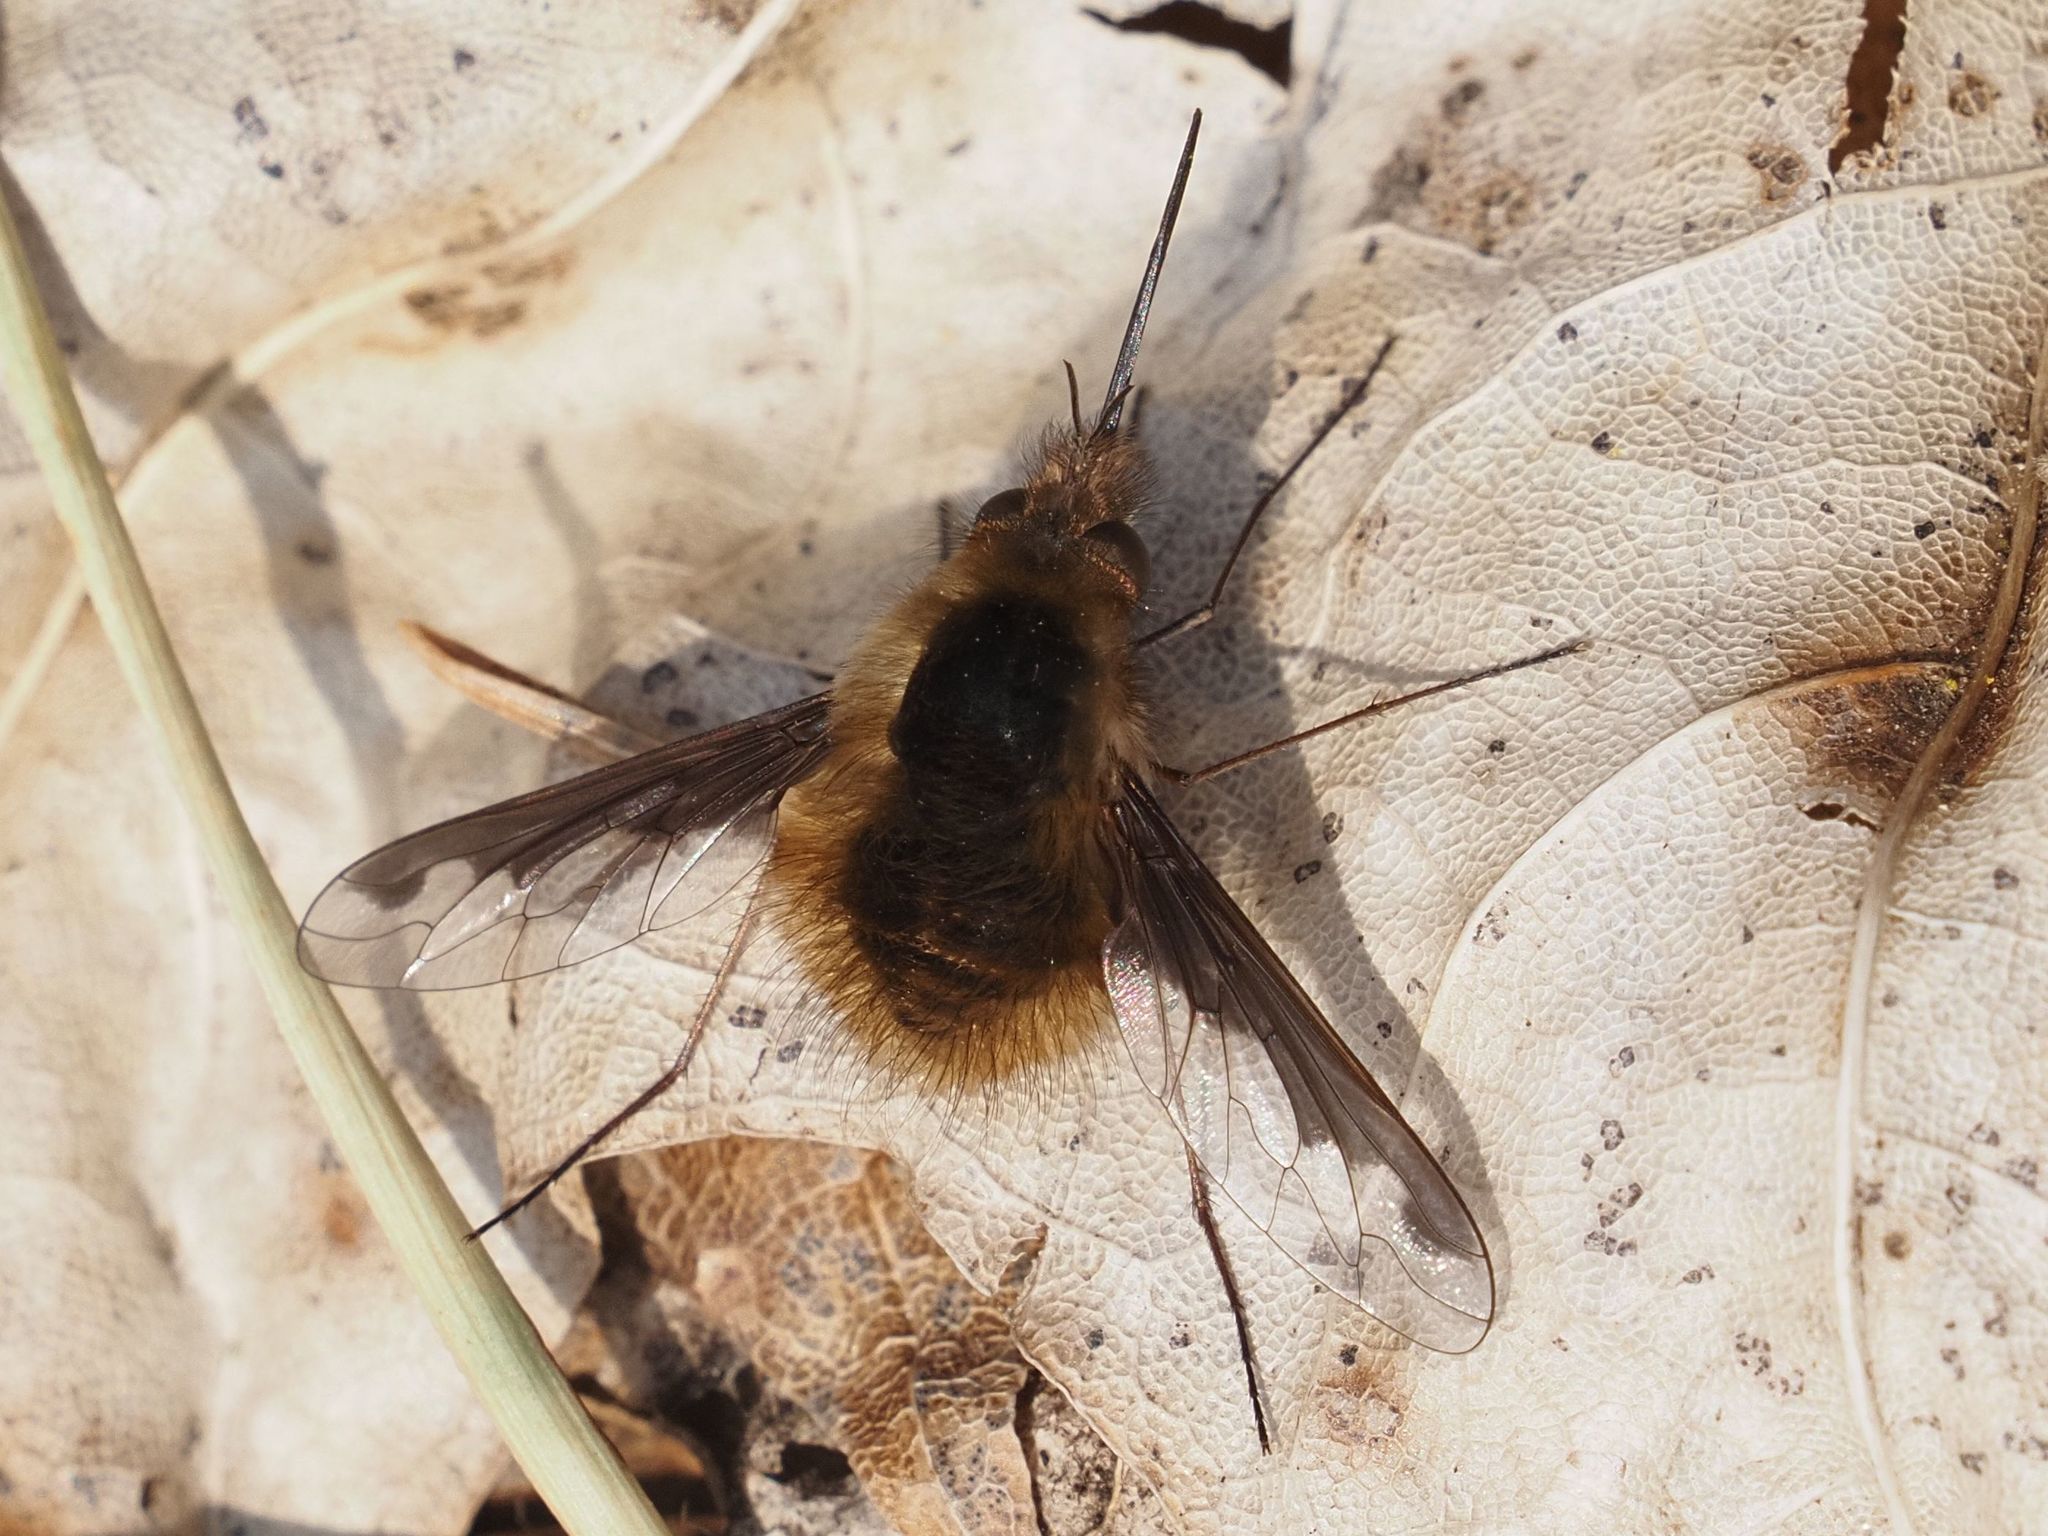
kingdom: Animalia
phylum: Arthropoda
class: Insecta
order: Diptera
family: Bombyliidae
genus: Bombylius
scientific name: Bombylius major
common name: Bee fly
